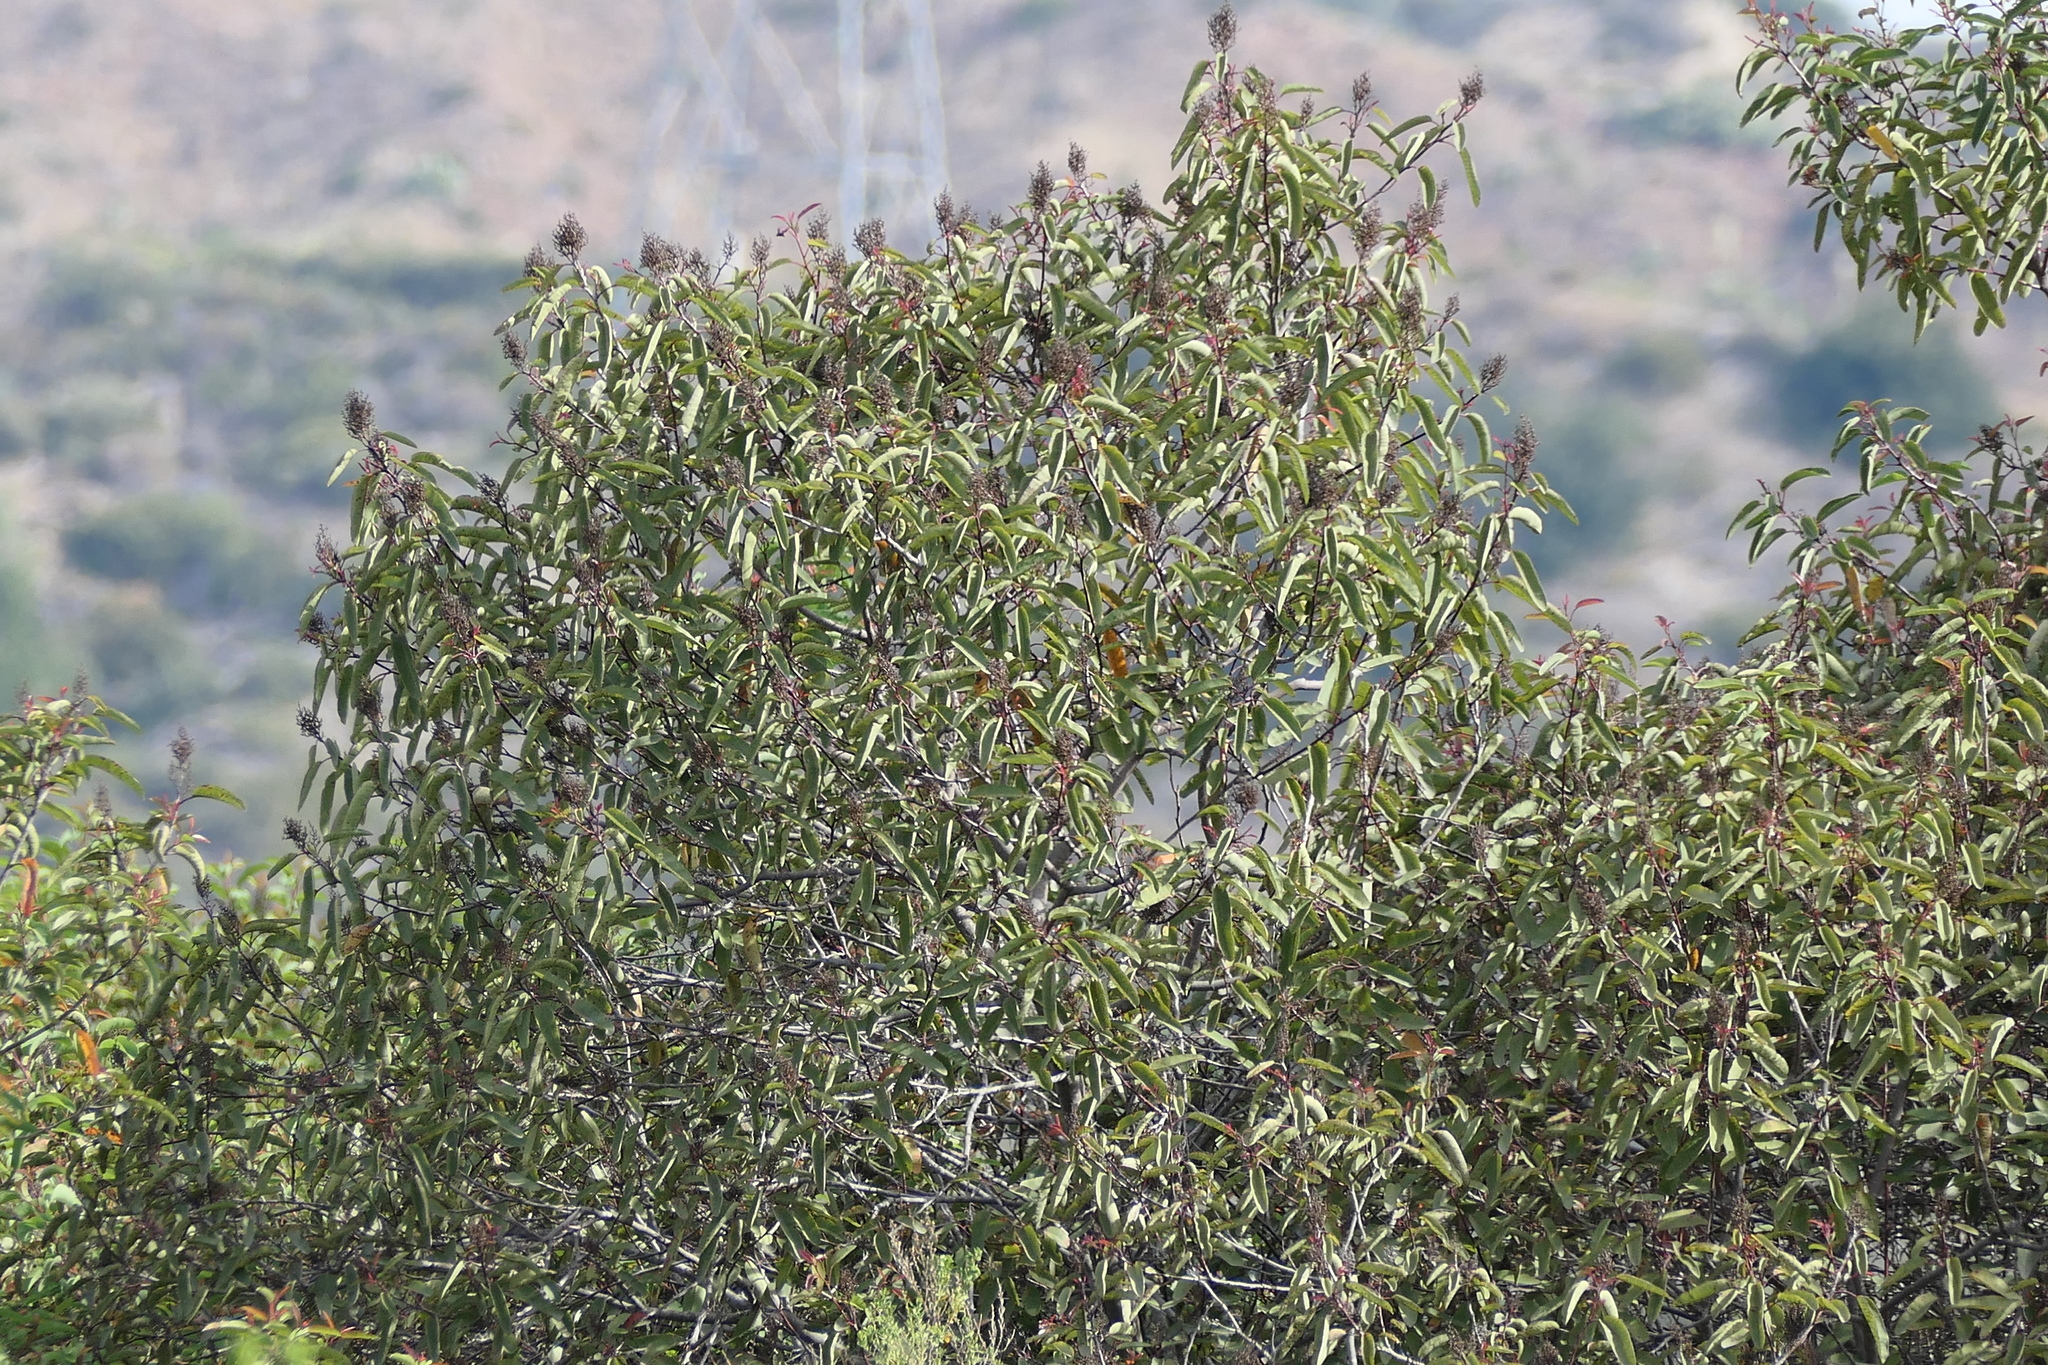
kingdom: Plantae
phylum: Tracheophyta
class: Magnoliopsida
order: Sapindales
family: Anacardiaceae
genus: Malosma
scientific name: Malosma laurina
